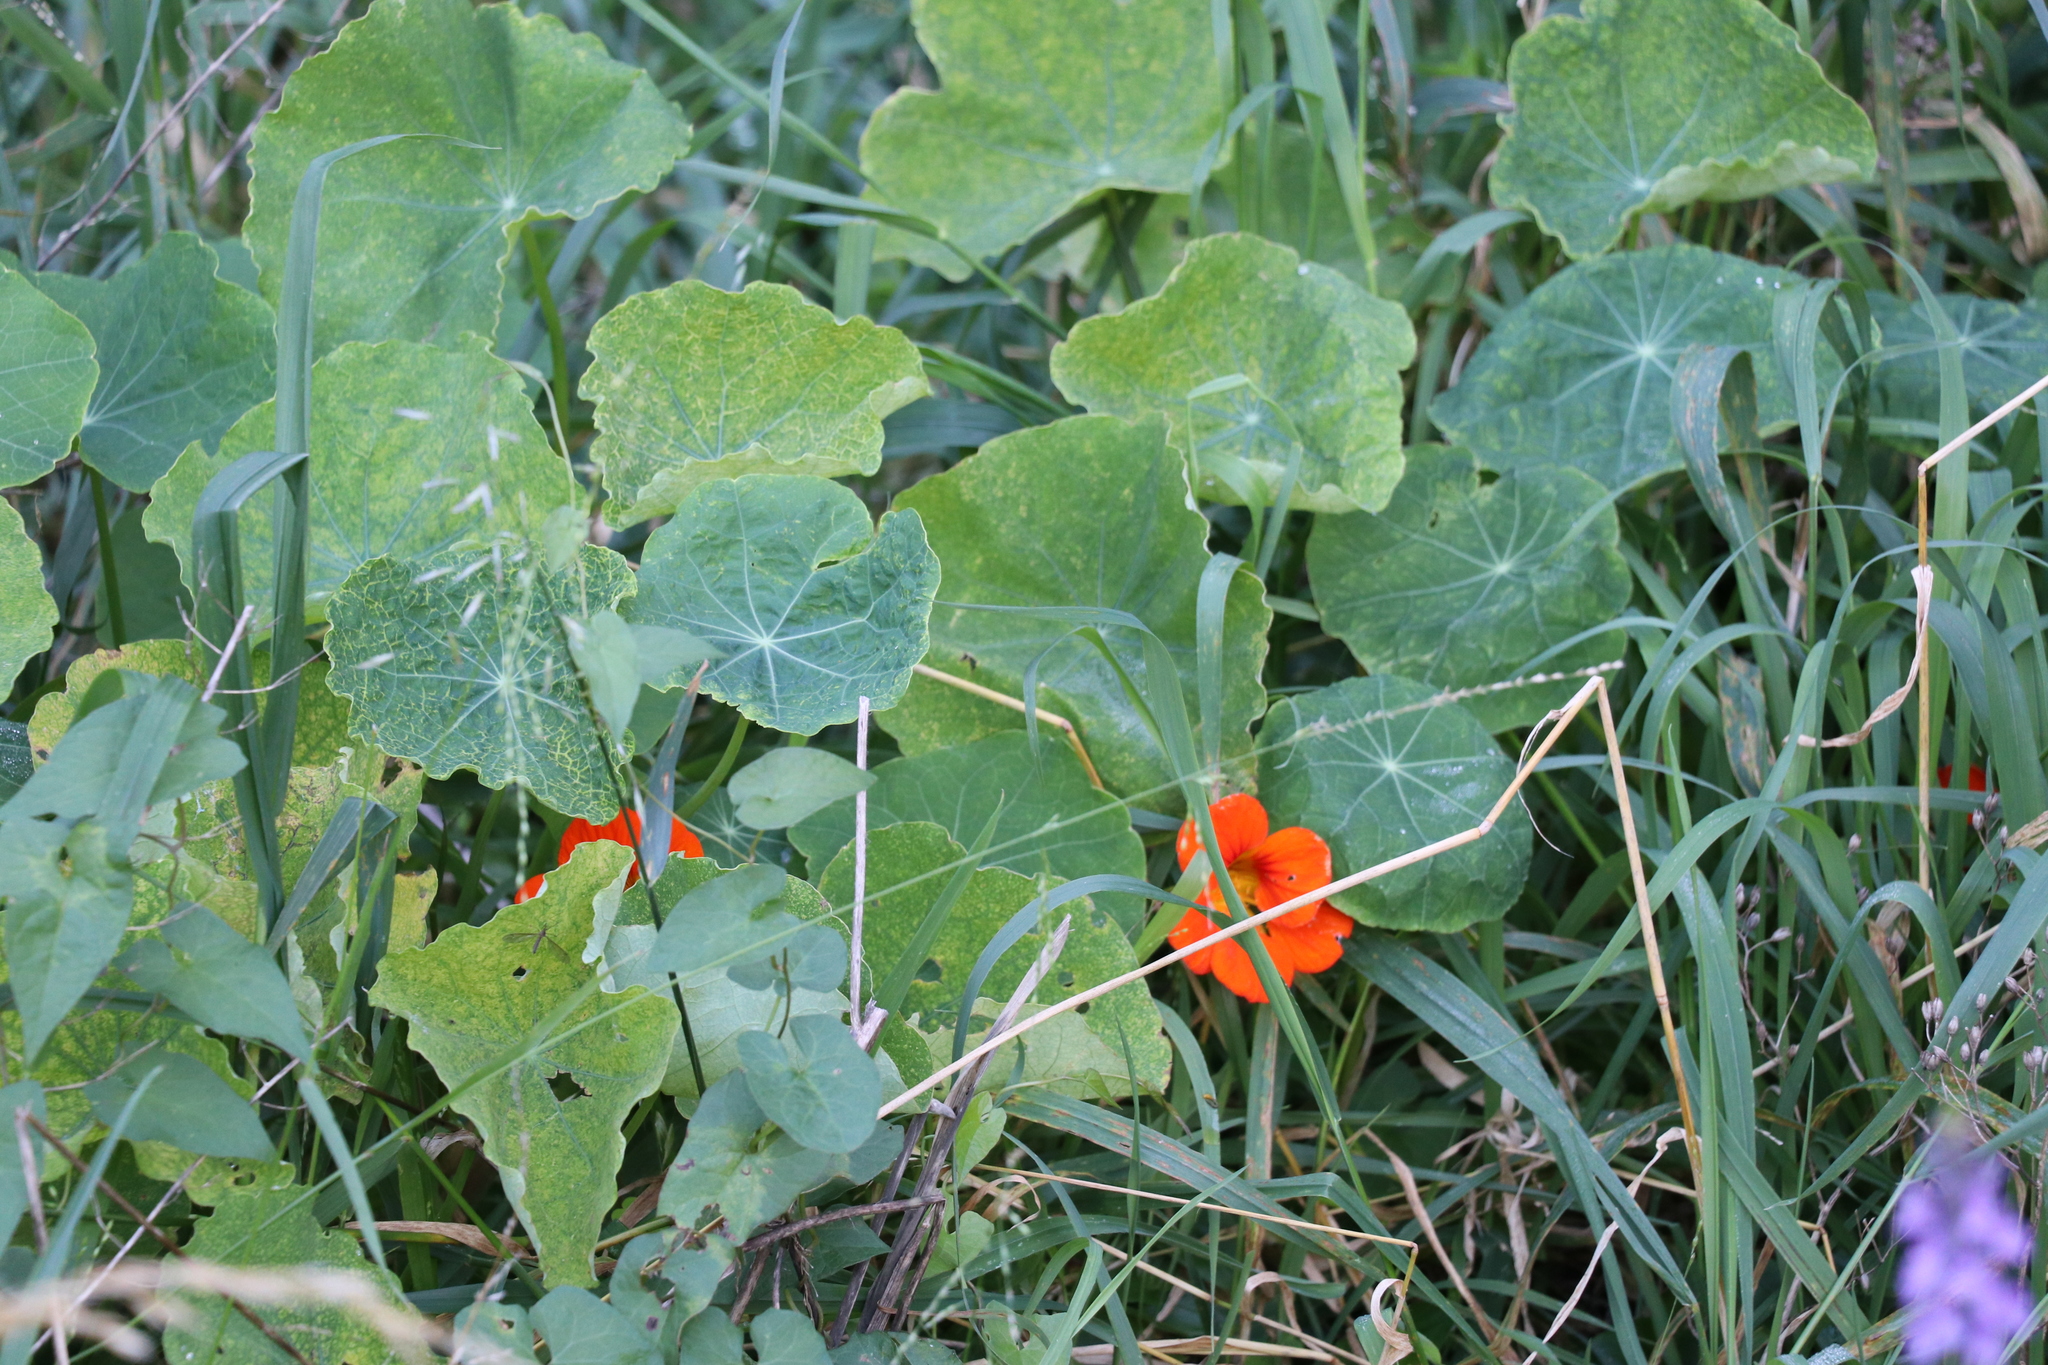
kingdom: Plantae
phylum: Tracheophyta
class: Magnoliopsida
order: Brassicales
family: Tropaeolaceae
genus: Tropaeolum
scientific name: Tropaeolum majus
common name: Nasturtium
